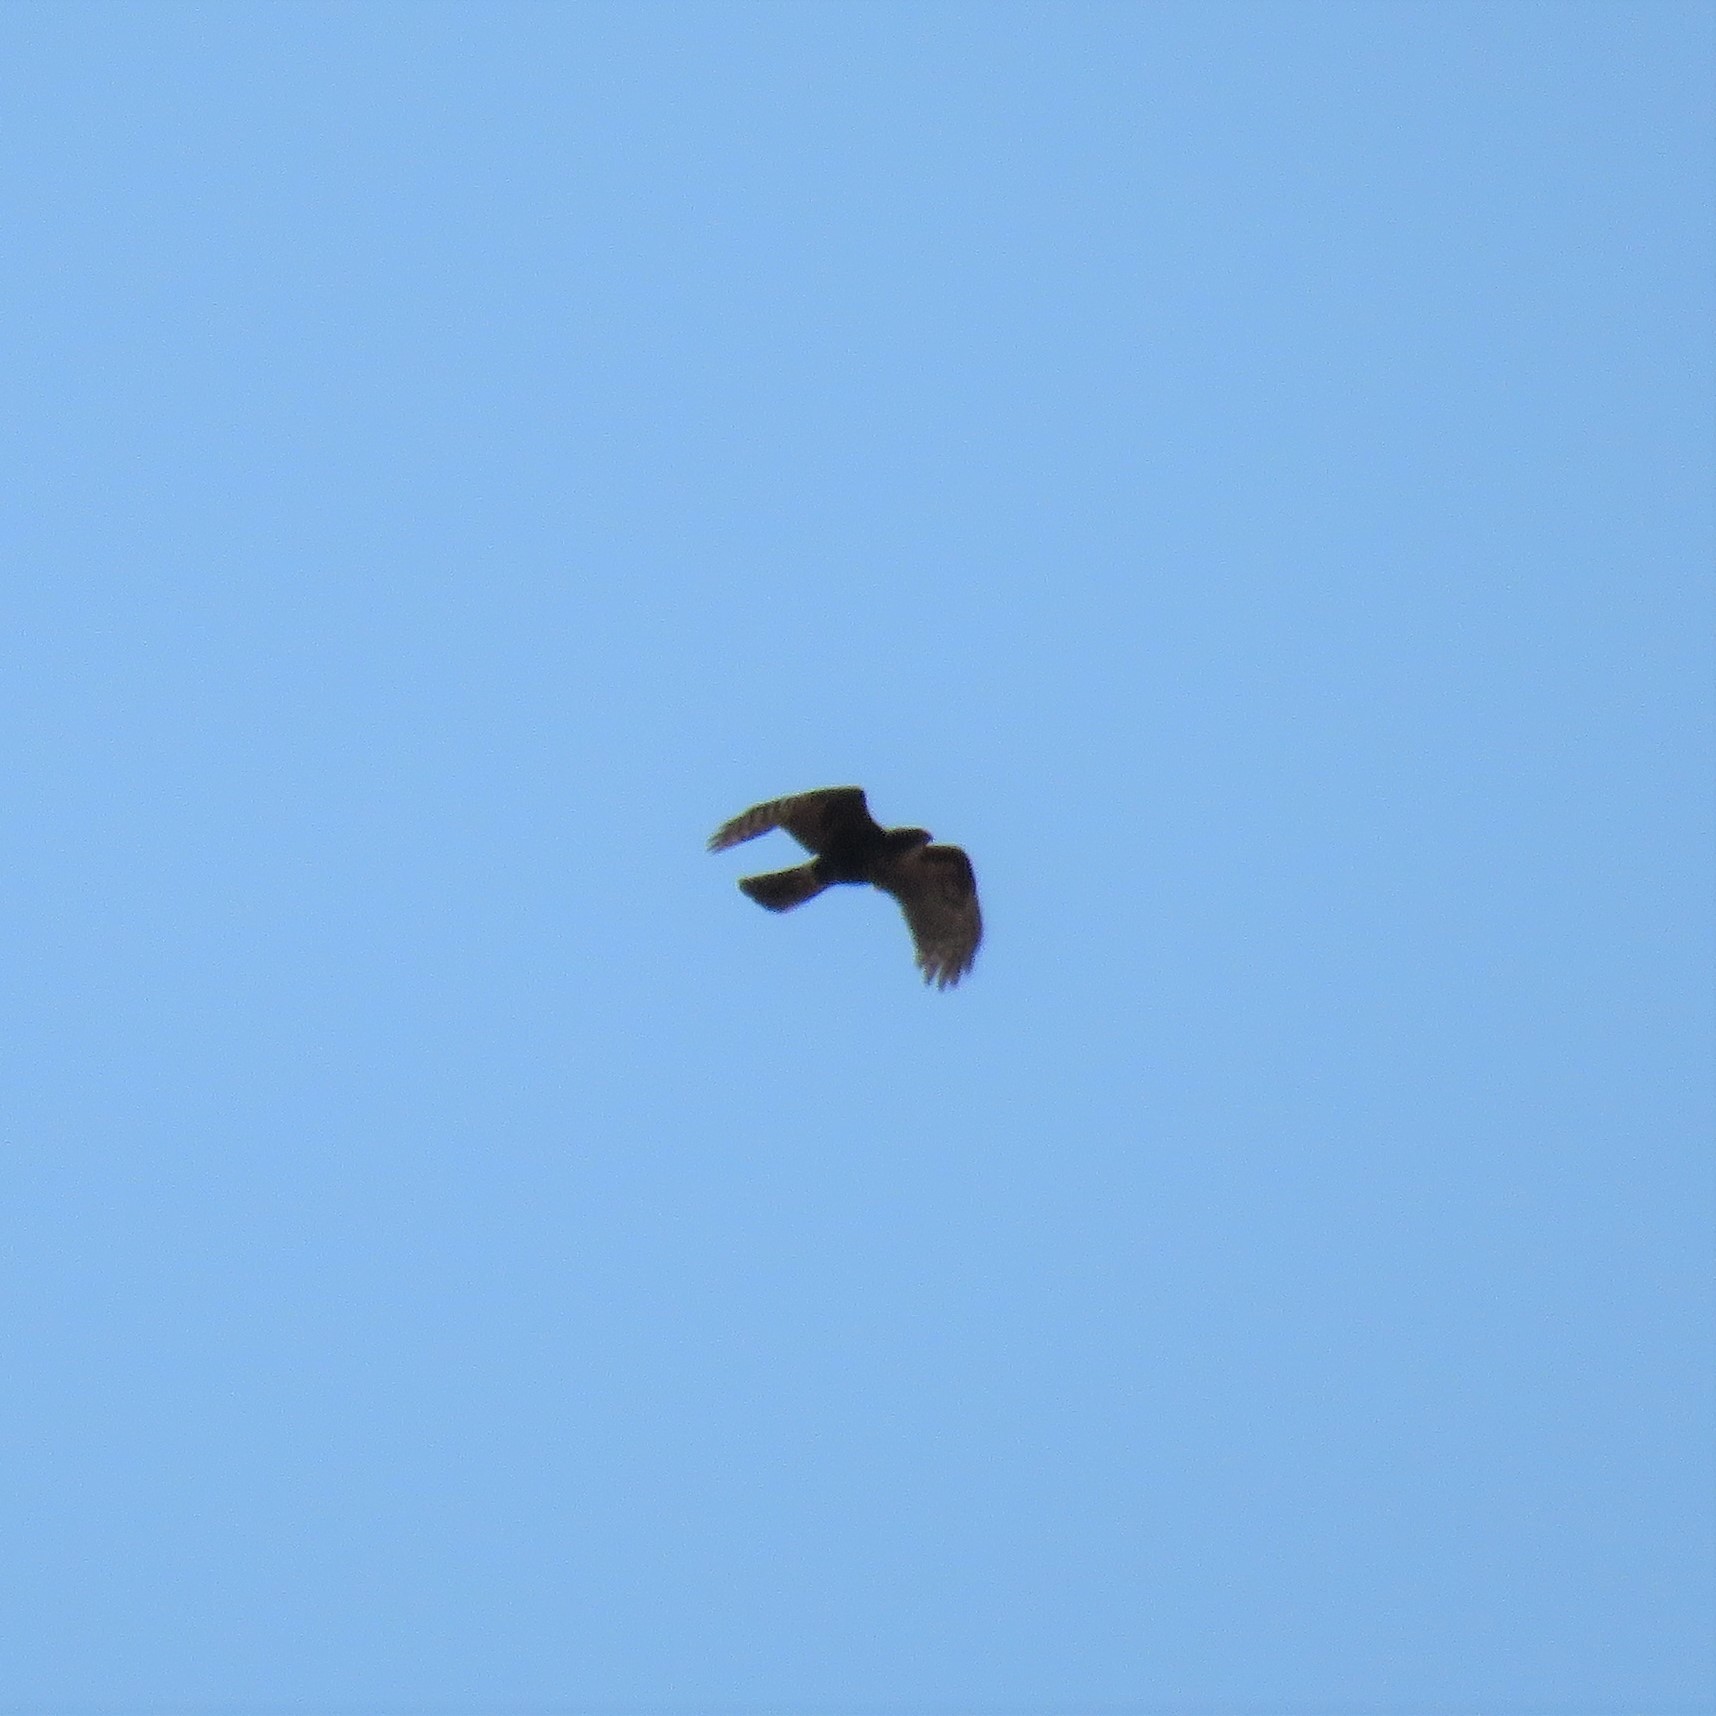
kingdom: Animalia
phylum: Chordata
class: Aves
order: Accipitriformes
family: Accipitridae
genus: Accipiter
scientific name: Accipiter melanoleucus
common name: Black sparrowhawk
